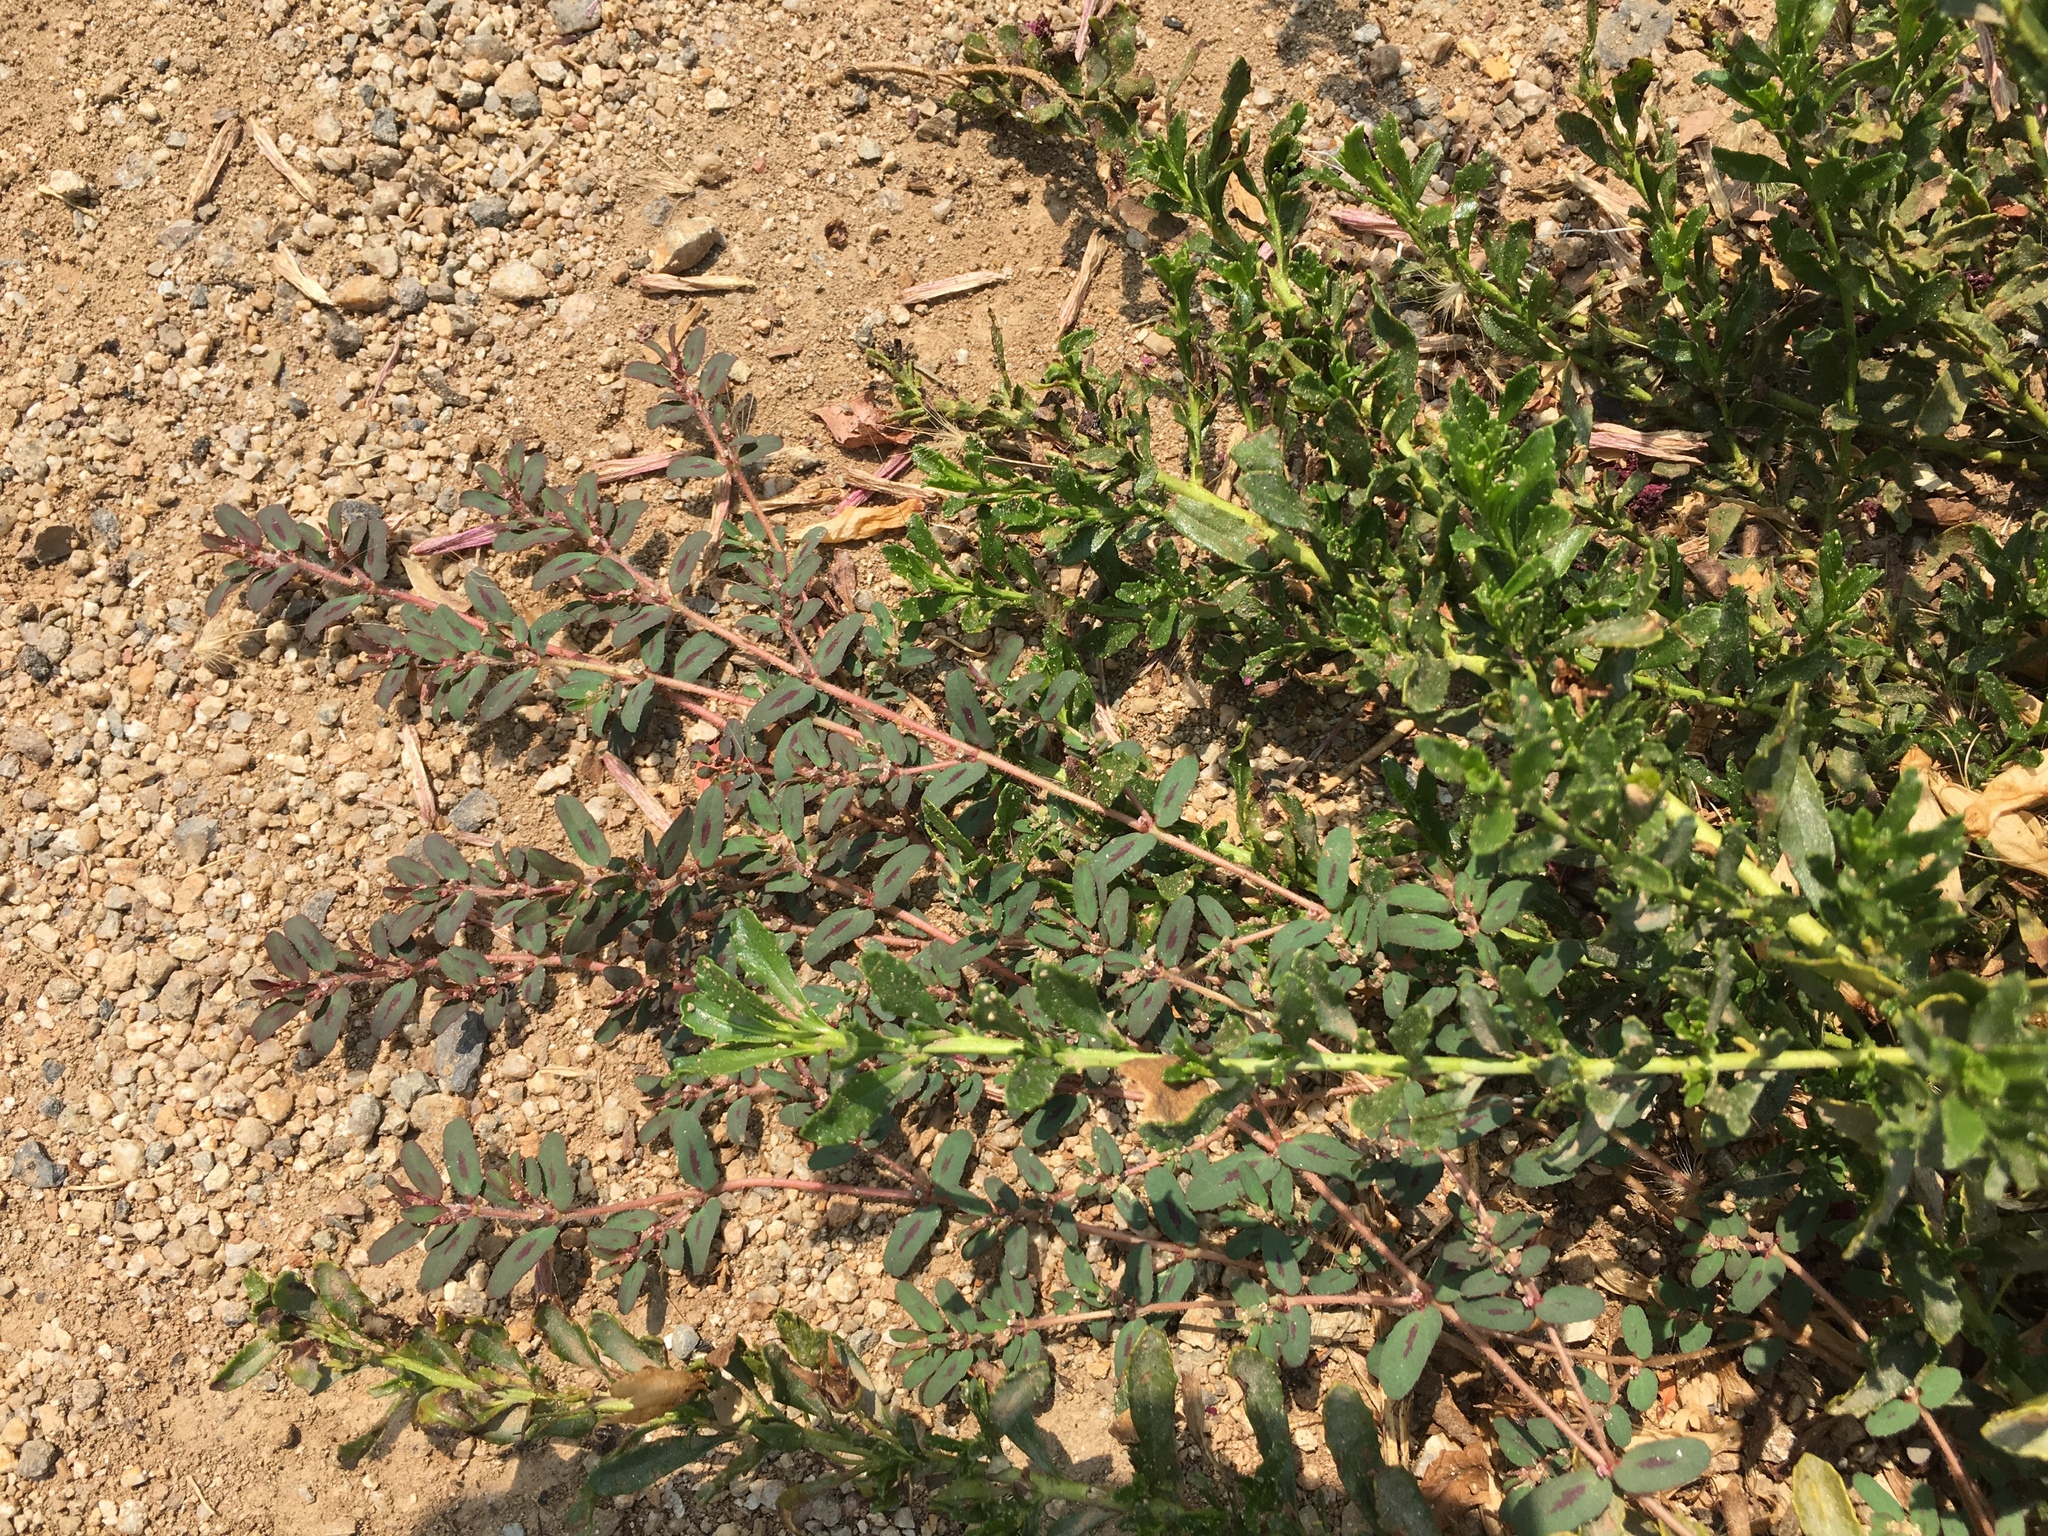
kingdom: Plantae
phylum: Tracheophyta
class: Magnoliopsida
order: Malpighiales
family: Euphorbiaceae
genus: Euphorbia
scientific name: Euphorbia maculata
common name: Spotted spurge
